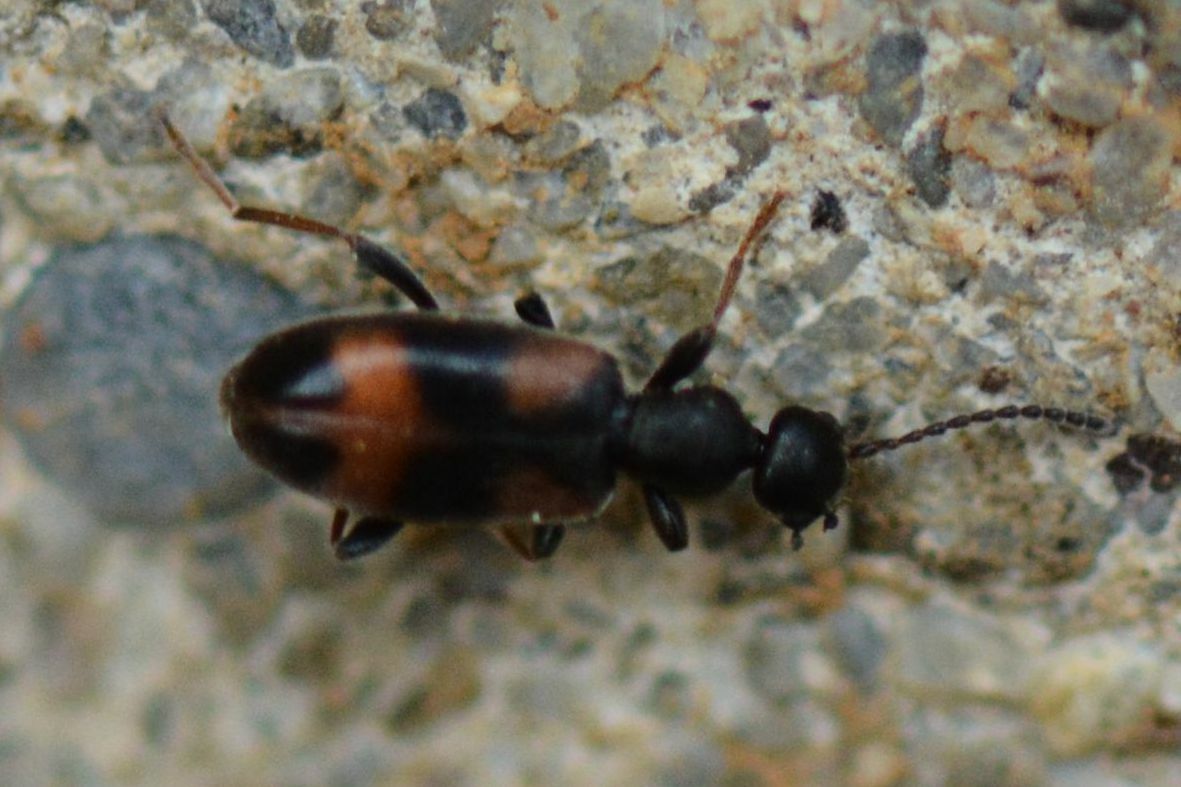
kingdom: Animalia
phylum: Arthropoda
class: Insecta
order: Coleoptera
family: Anthicidae
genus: Anthicus
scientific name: Anthicus antherinus
